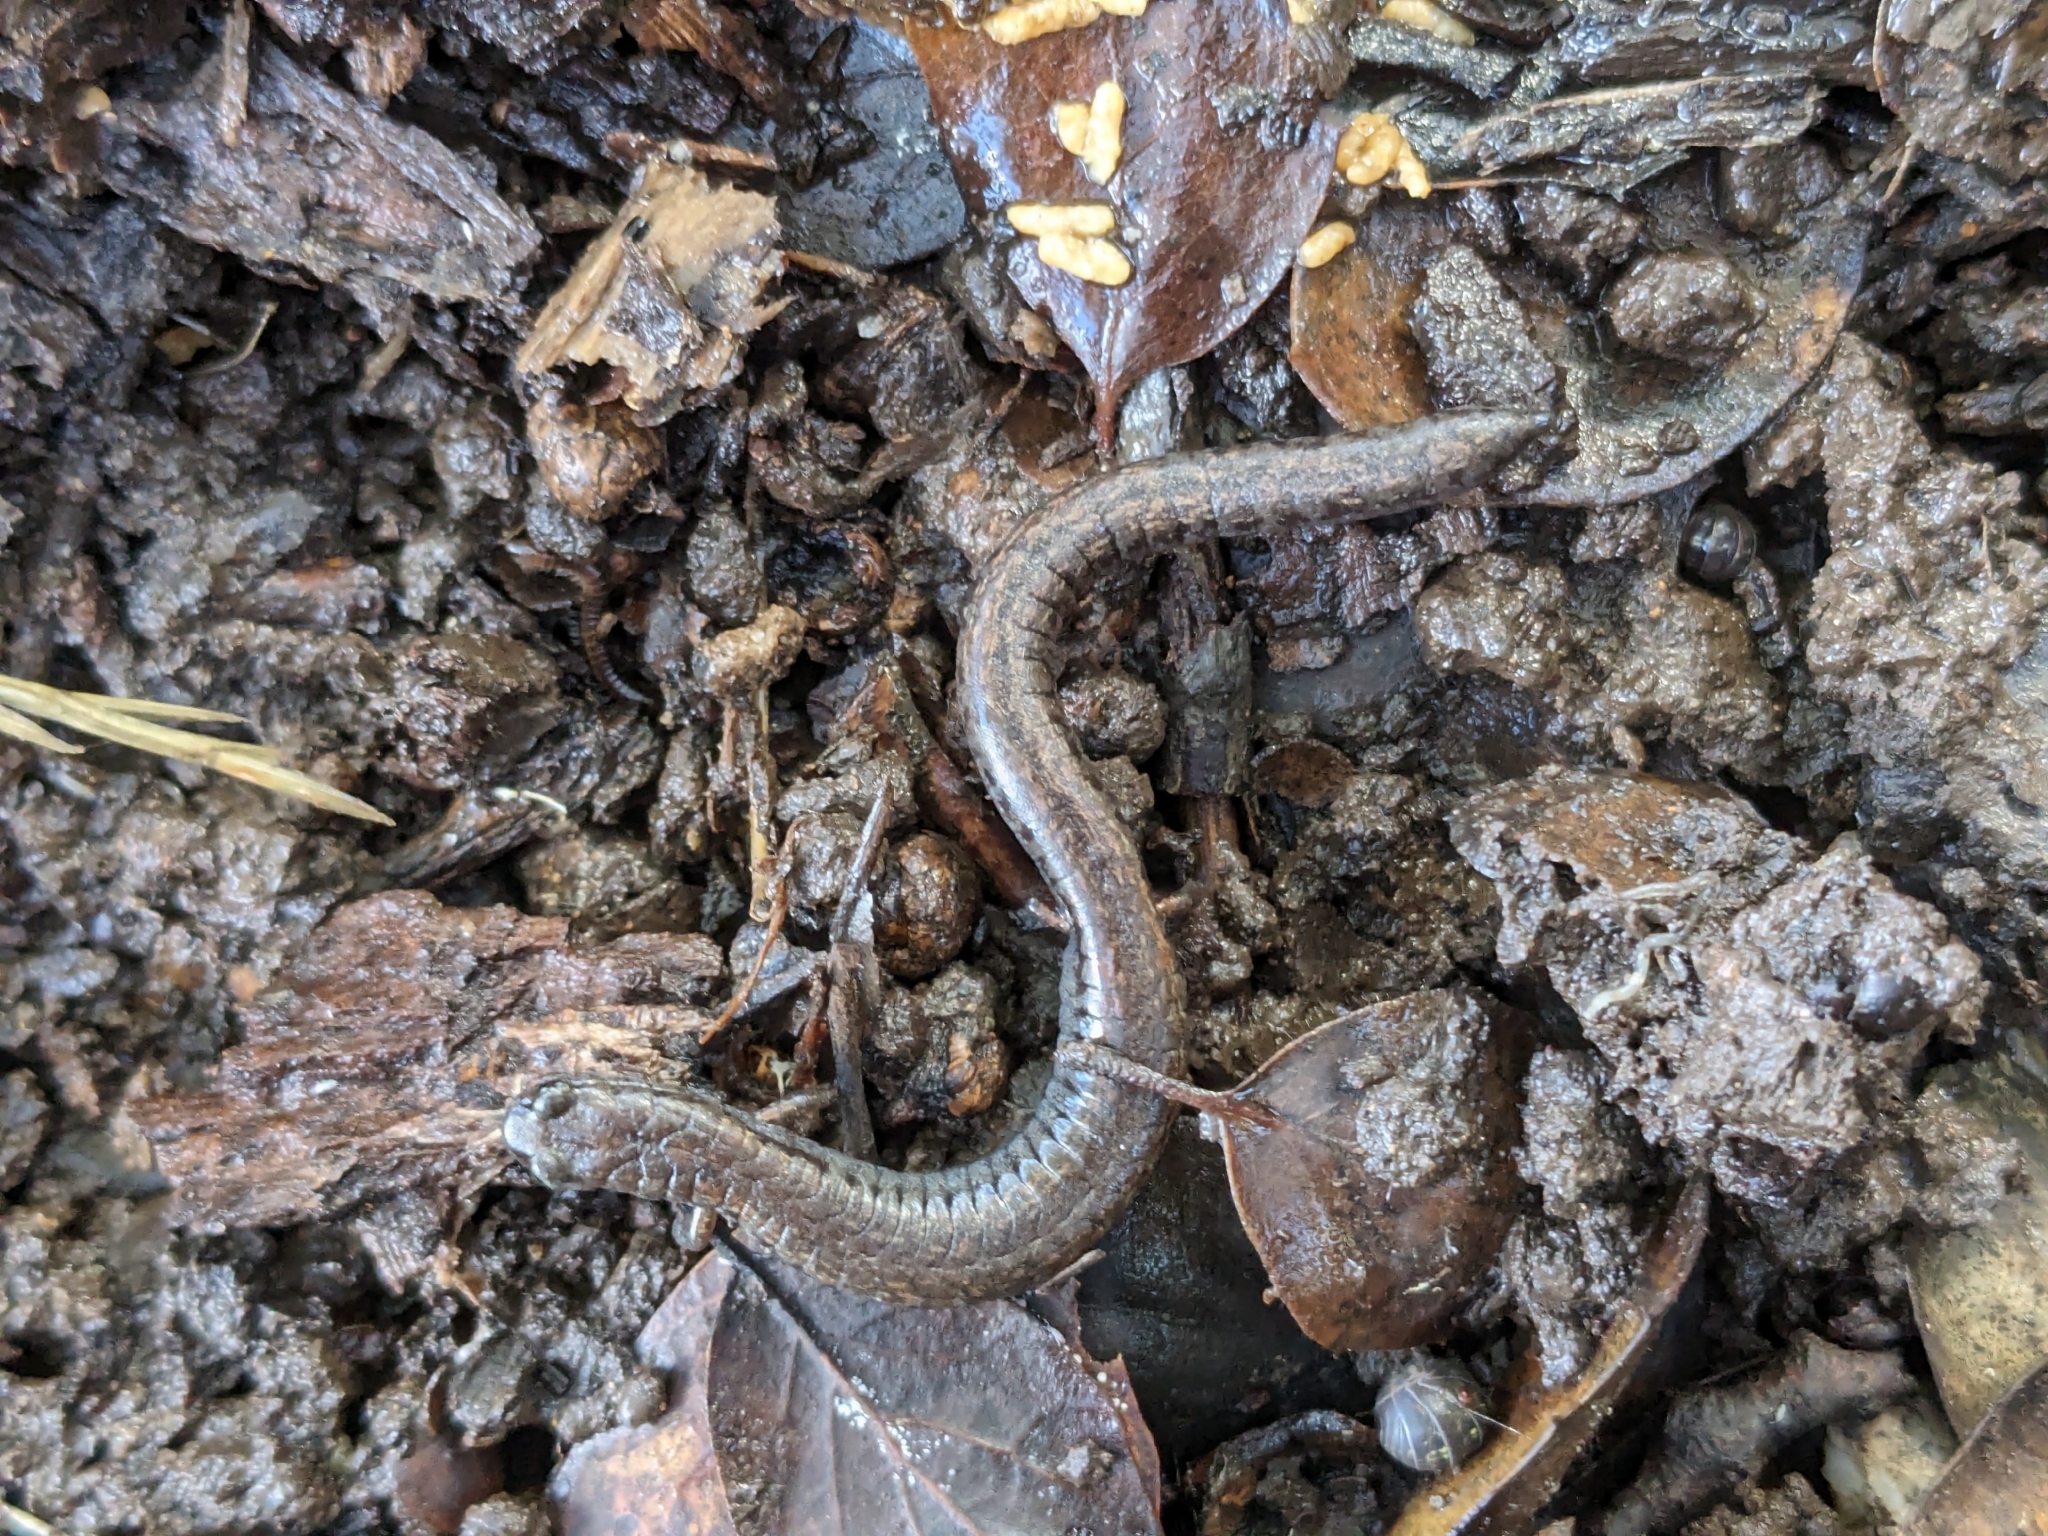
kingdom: Animalia
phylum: Chordata
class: Amphibia
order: Caudata
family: Plethodontidae
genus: Batrachoseps
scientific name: Batrachoseps attenuatus
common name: California slender salamander
